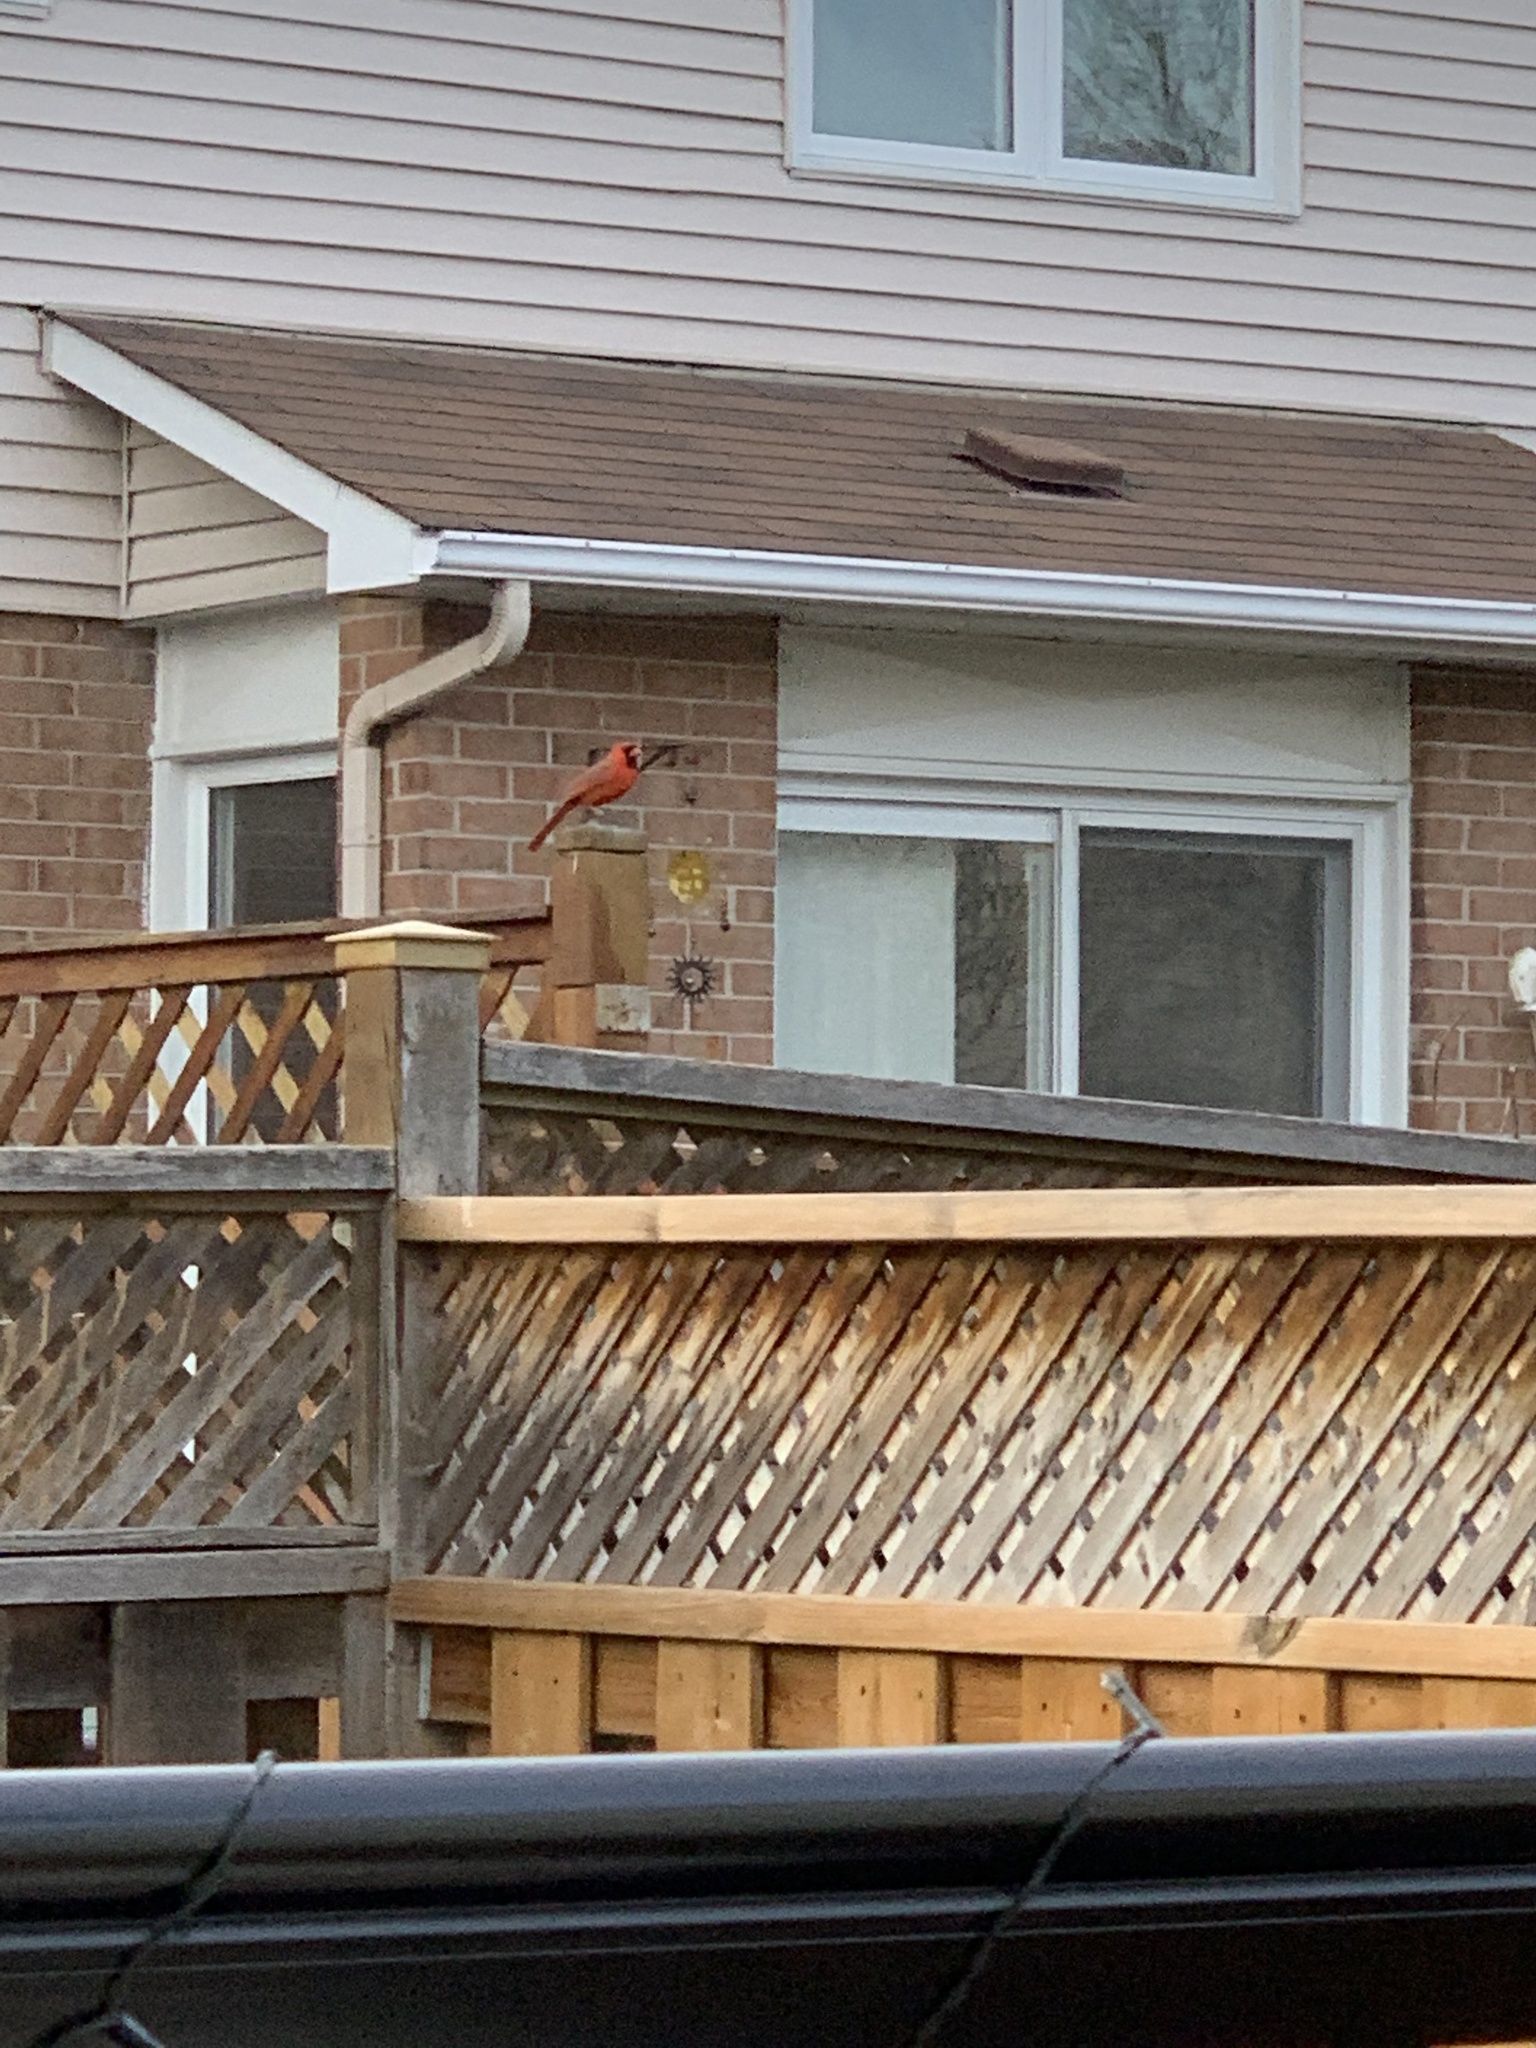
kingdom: Animalia
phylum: Chordata
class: Aves
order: Passeriformes
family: Cardinalidae
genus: Cardinalis
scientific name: Cardinalis cardinalis
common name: Northern cardinal
